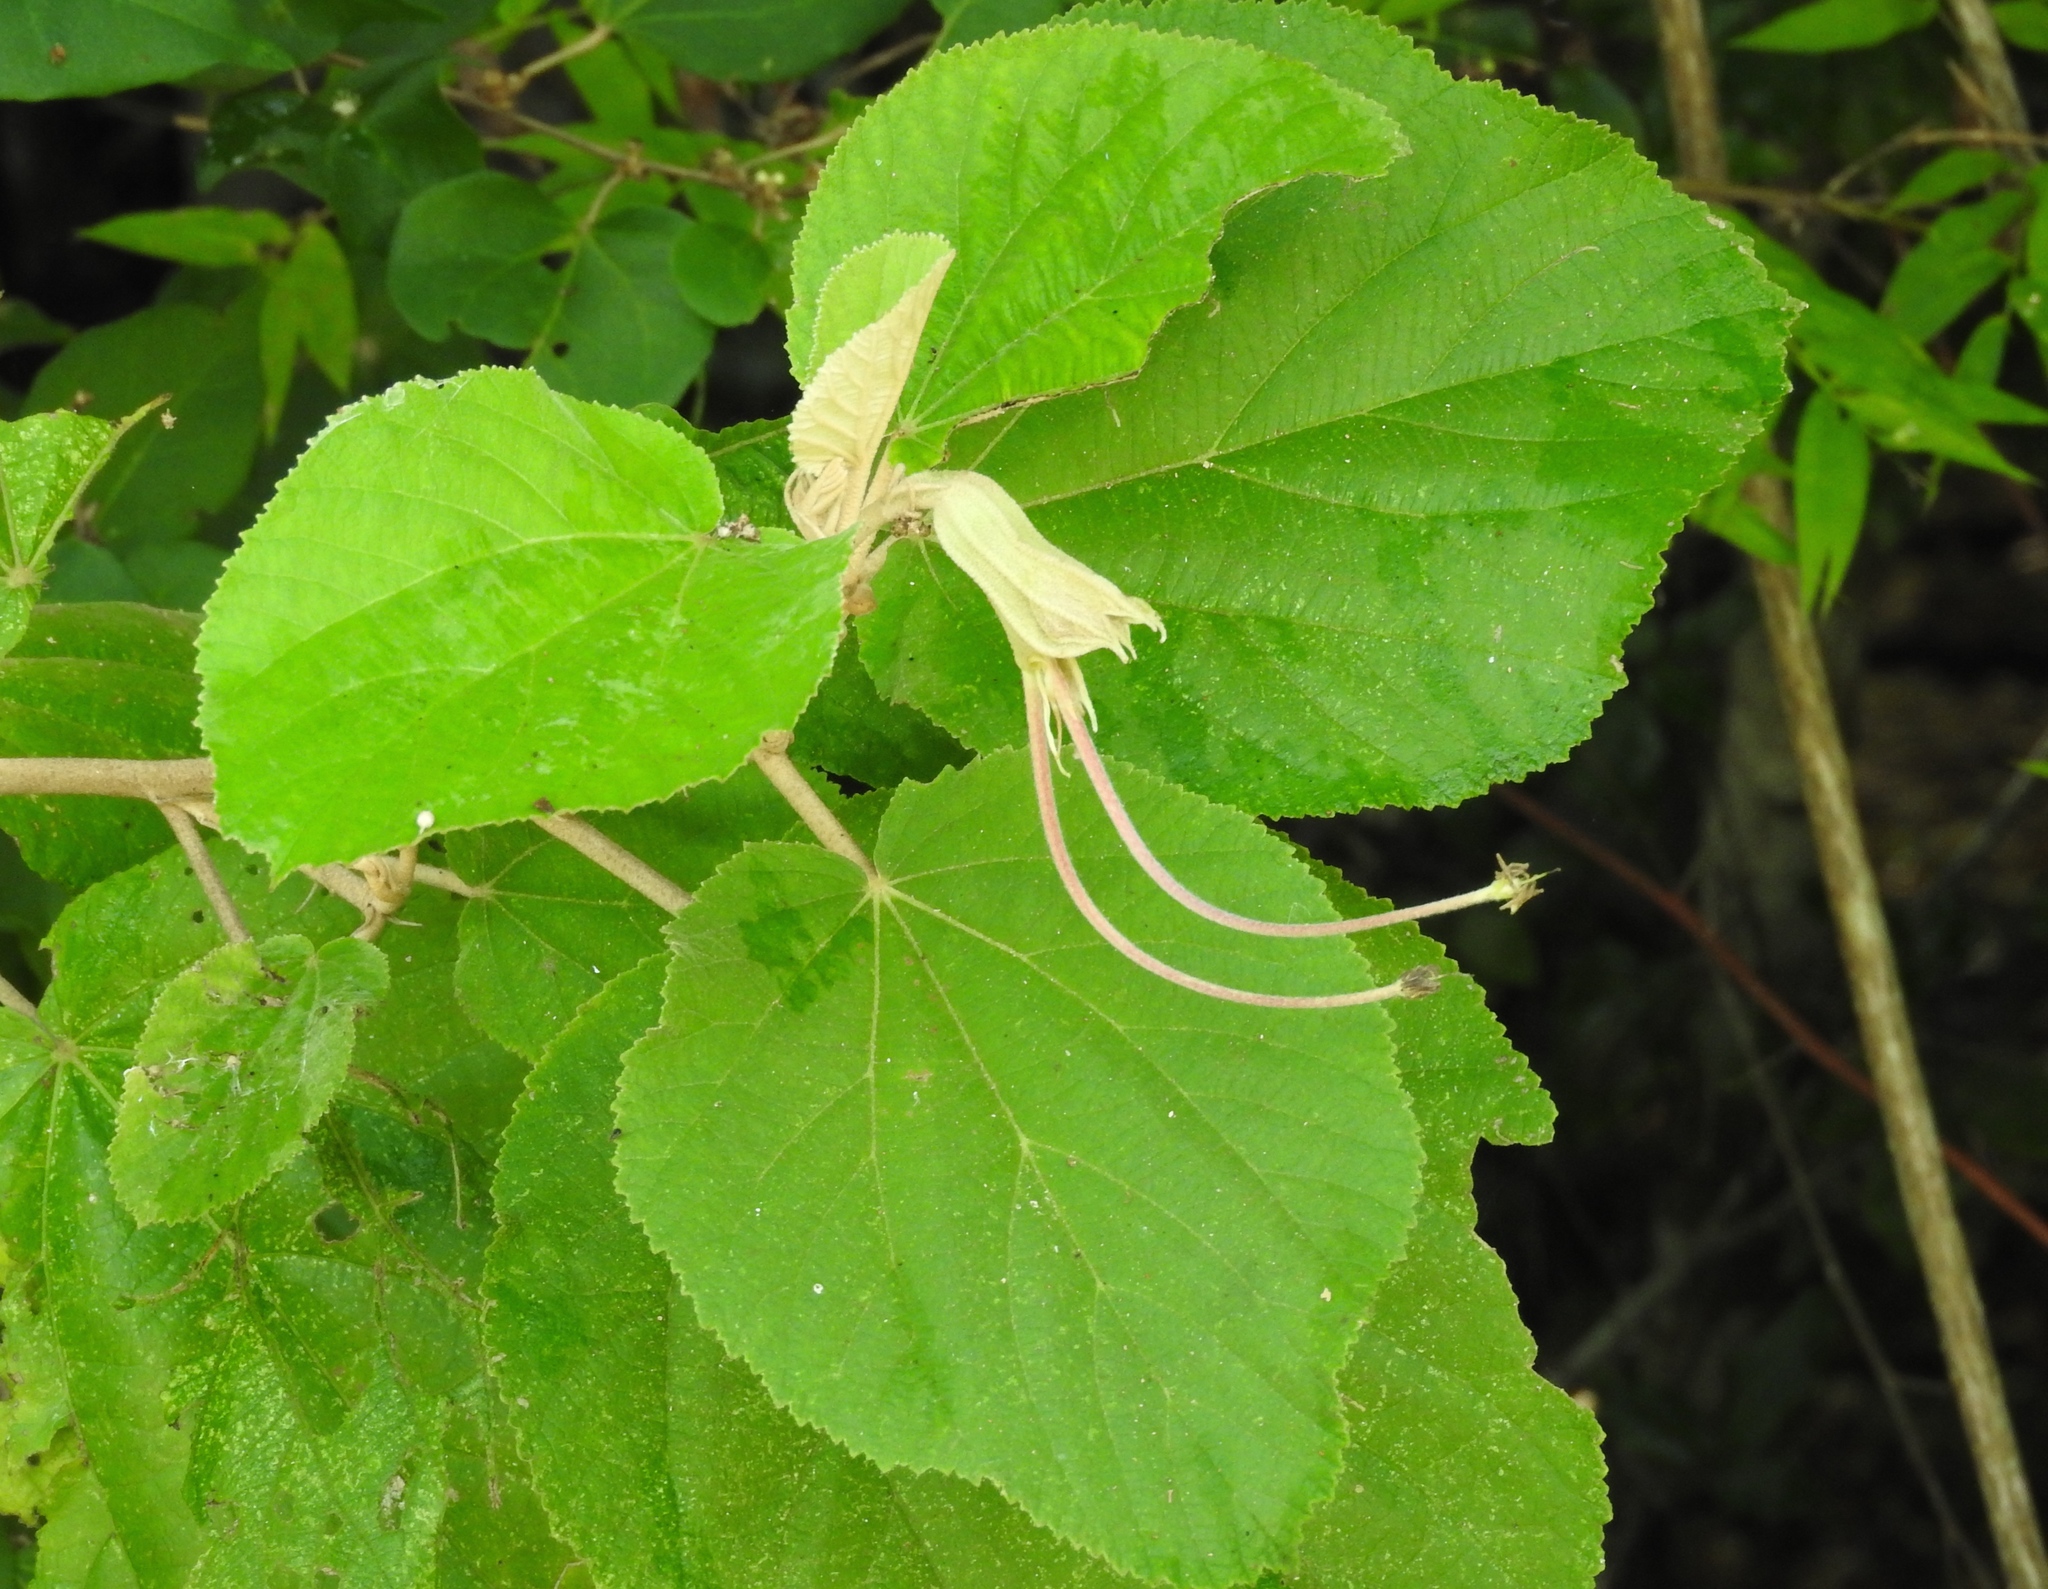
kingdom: Plantae
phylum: Tracheophyta
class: Magnoliopsida
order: Malvales
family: Malvaceae
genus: Helicteres
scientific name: Helicteres baruensis
